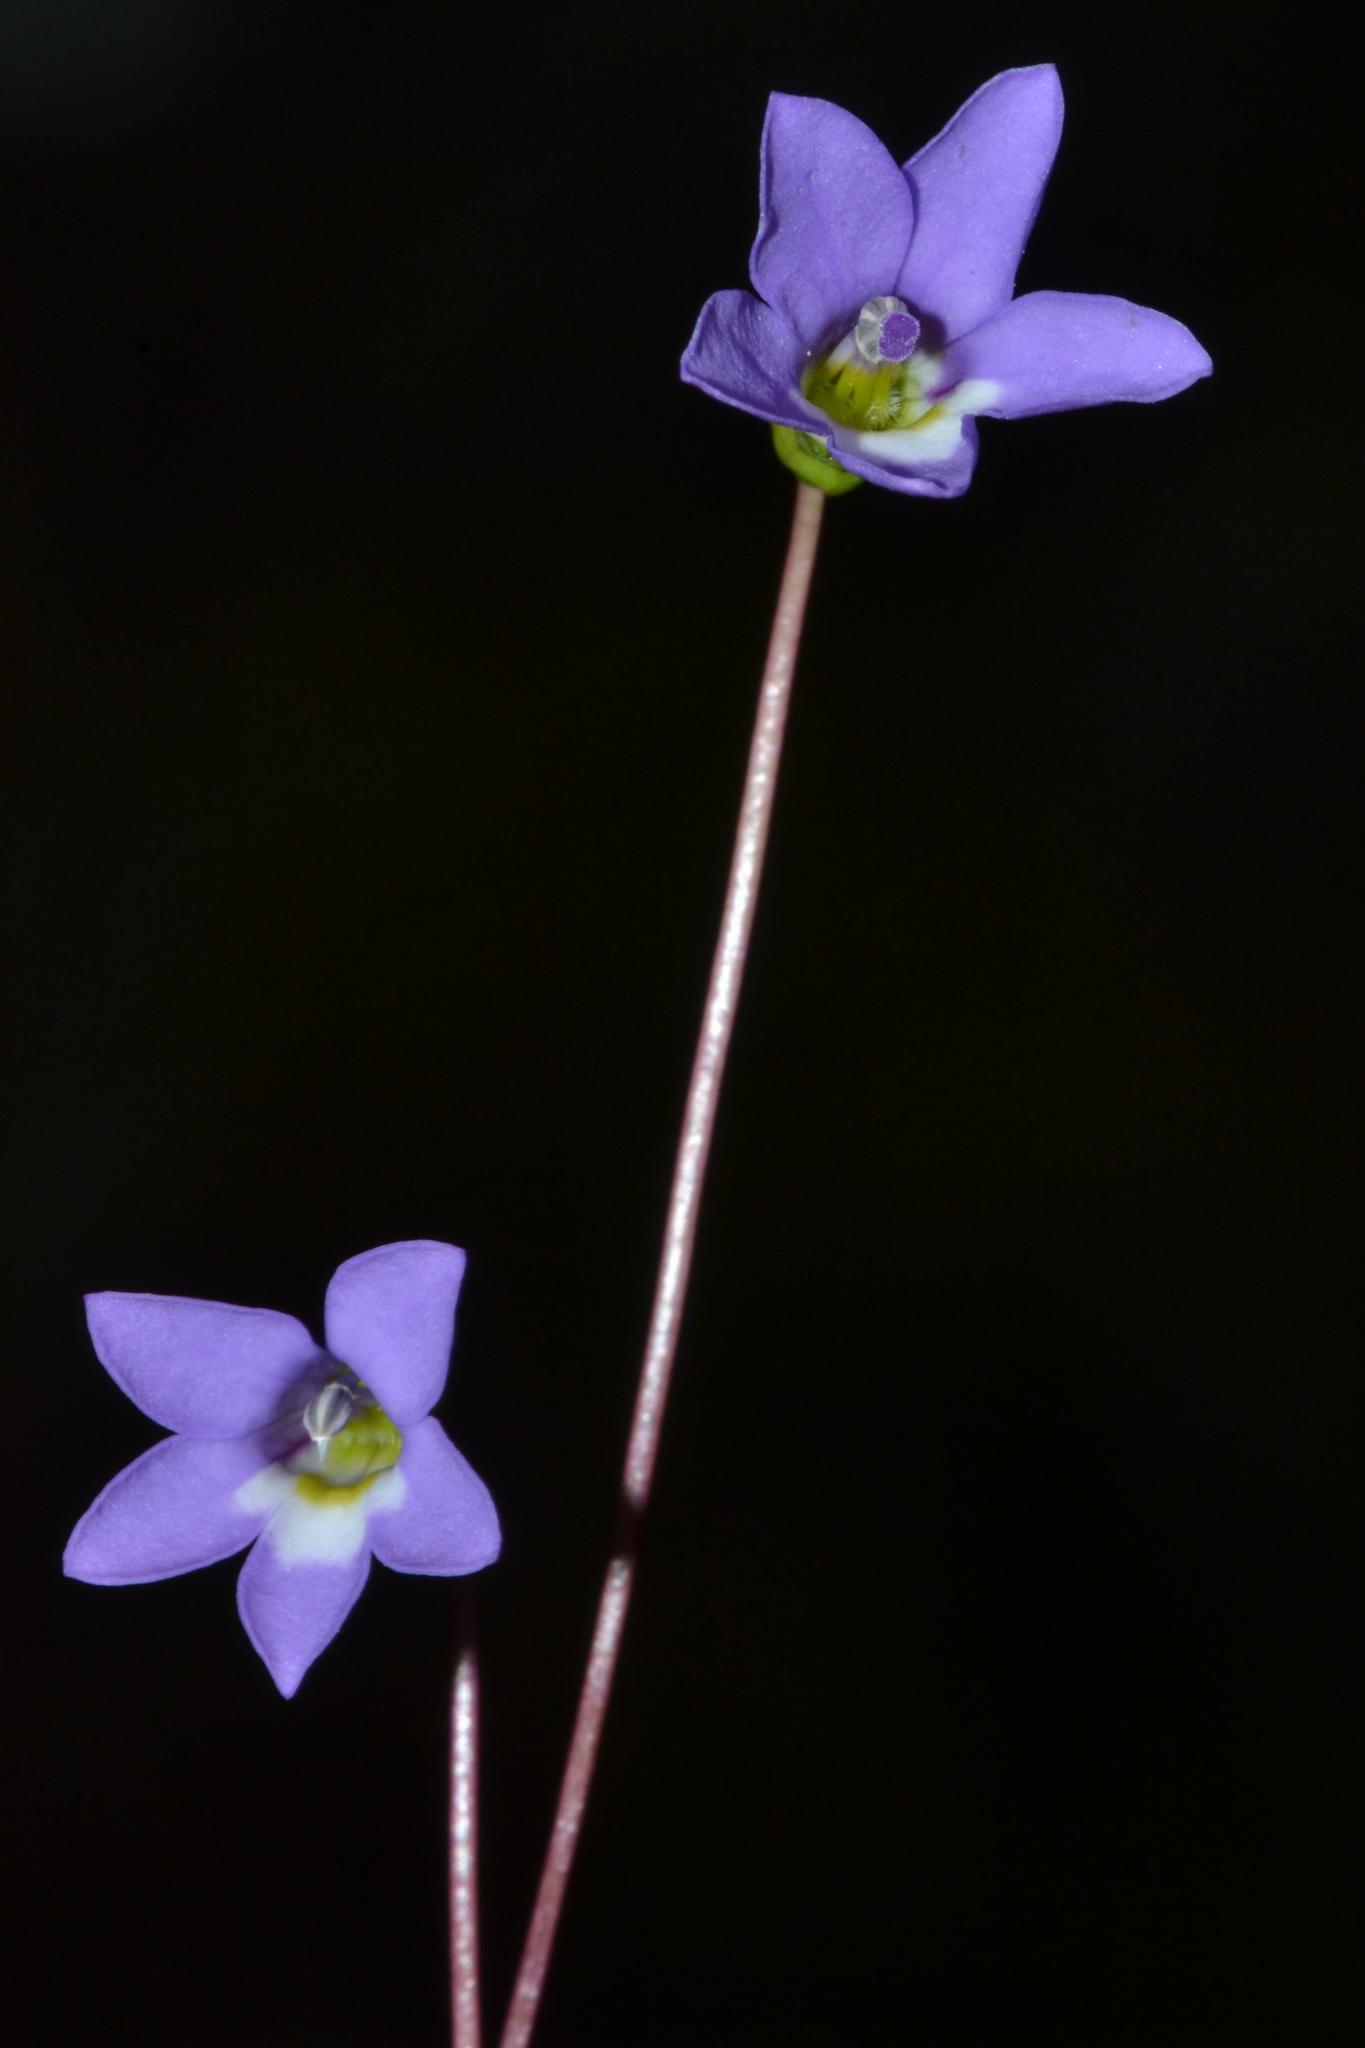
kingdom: Plantae
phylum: Tracheophyta
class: Magnoliopsida
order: Asterales
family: Campanulaceae
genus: Isotoma
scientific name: Isotoma scapigera
